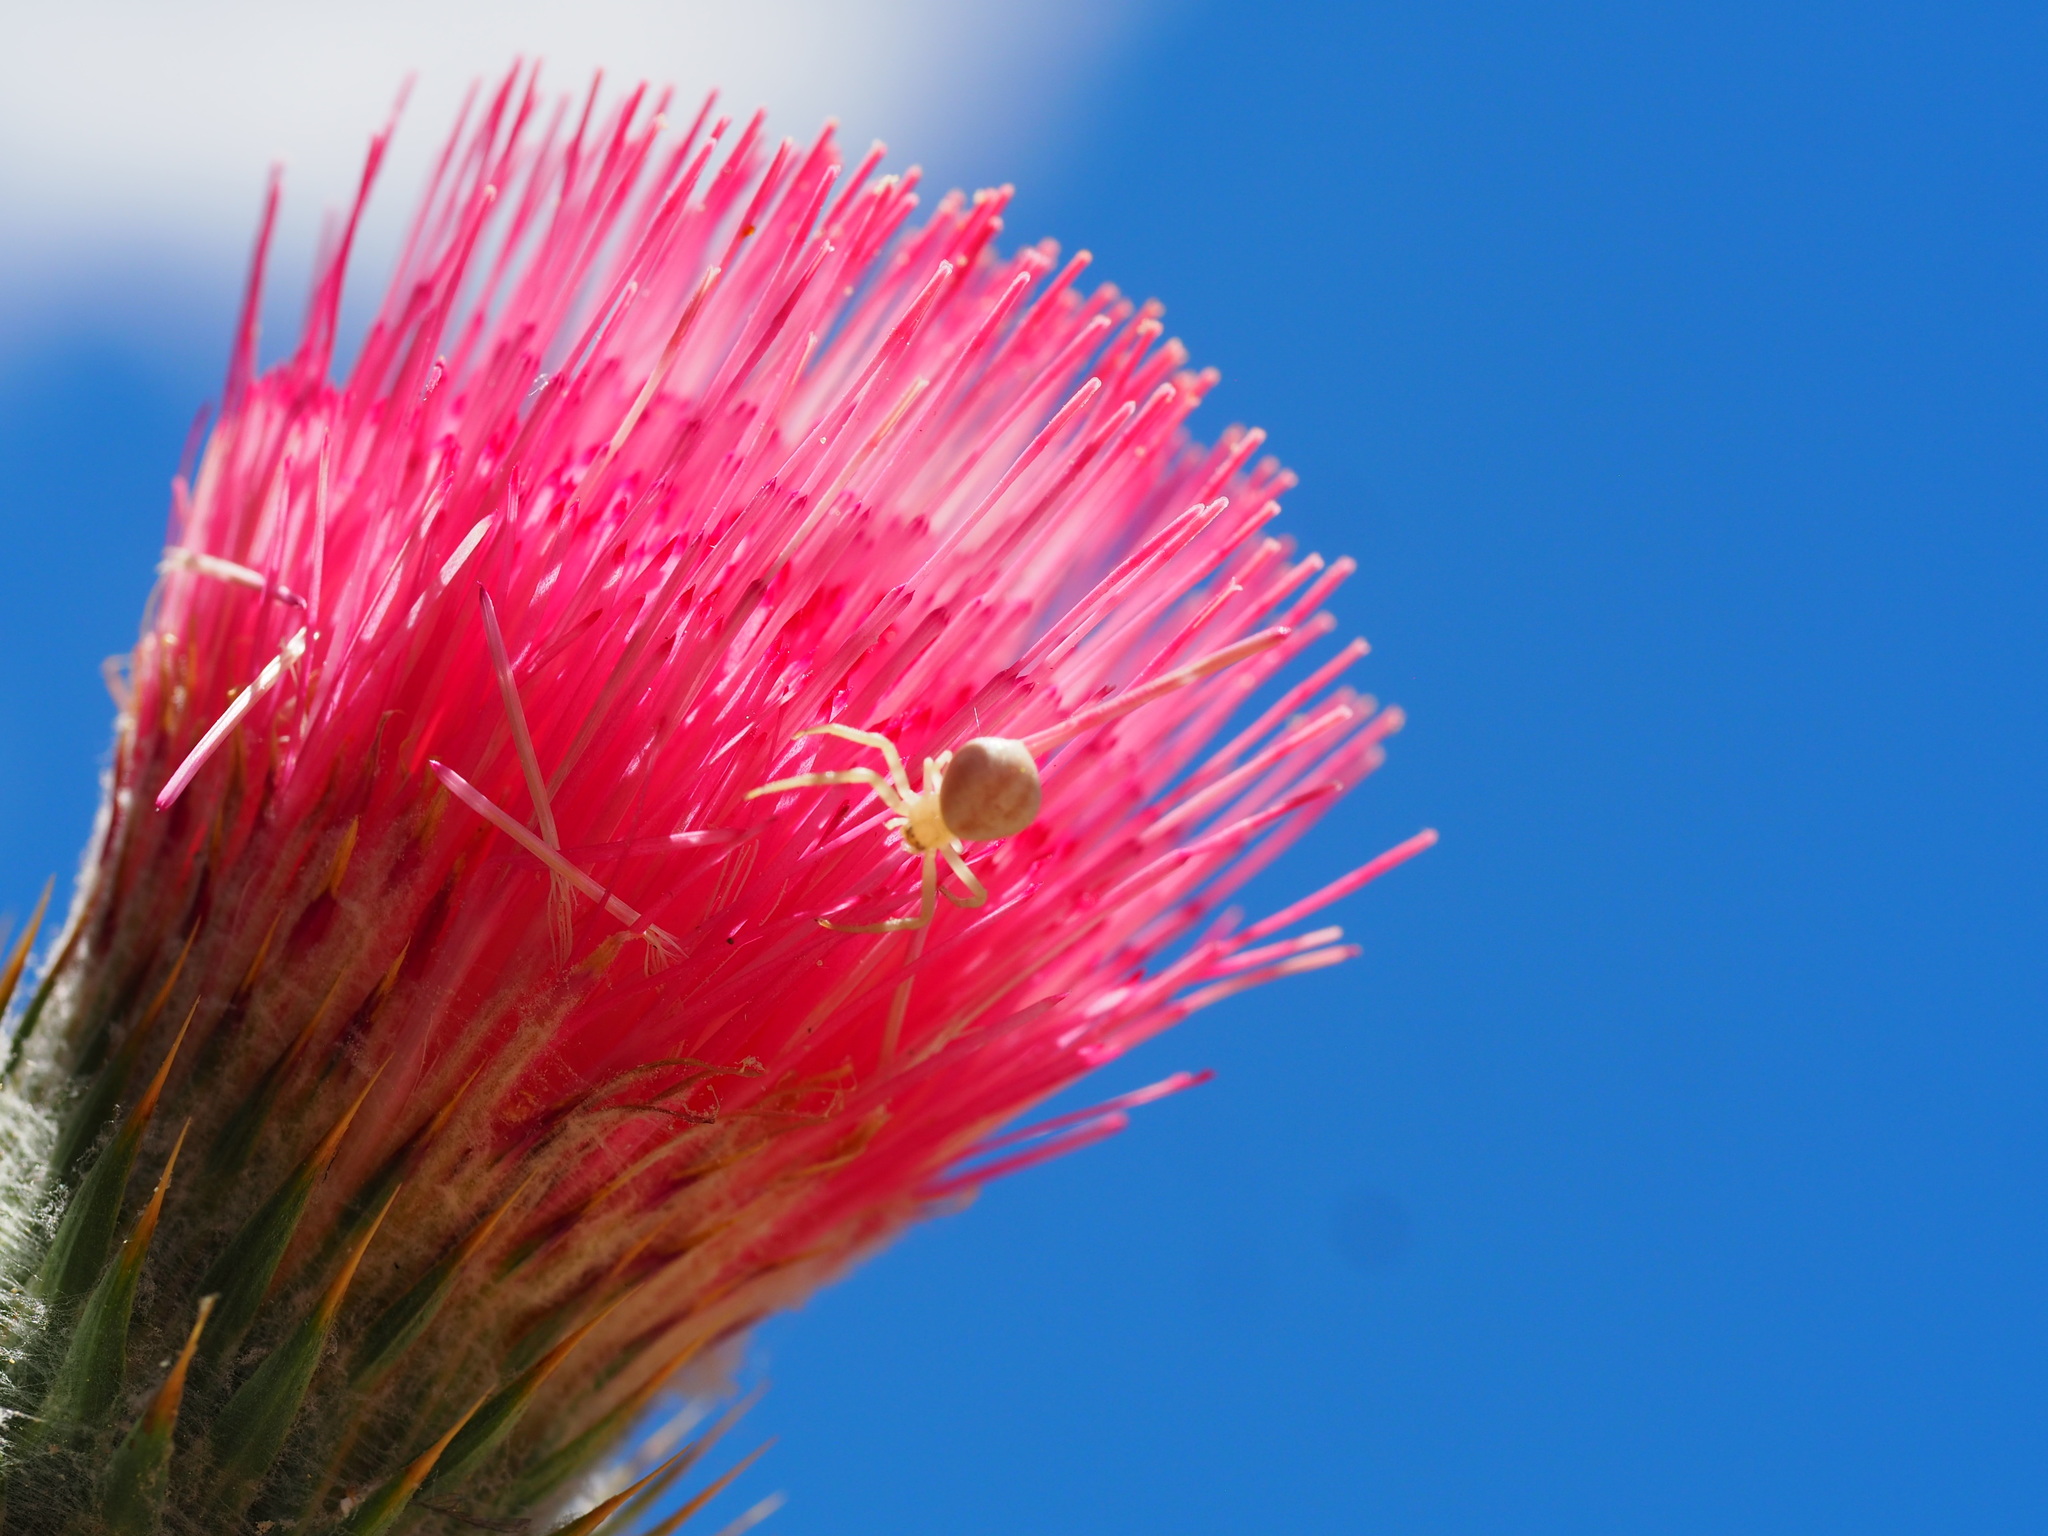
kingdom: Plantae
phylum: Tracheophyta
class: Magnoliopsida
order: Asterales
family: Asteraceae
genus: Cirsium
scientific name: Cirsium occidentale
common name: Western thistle
